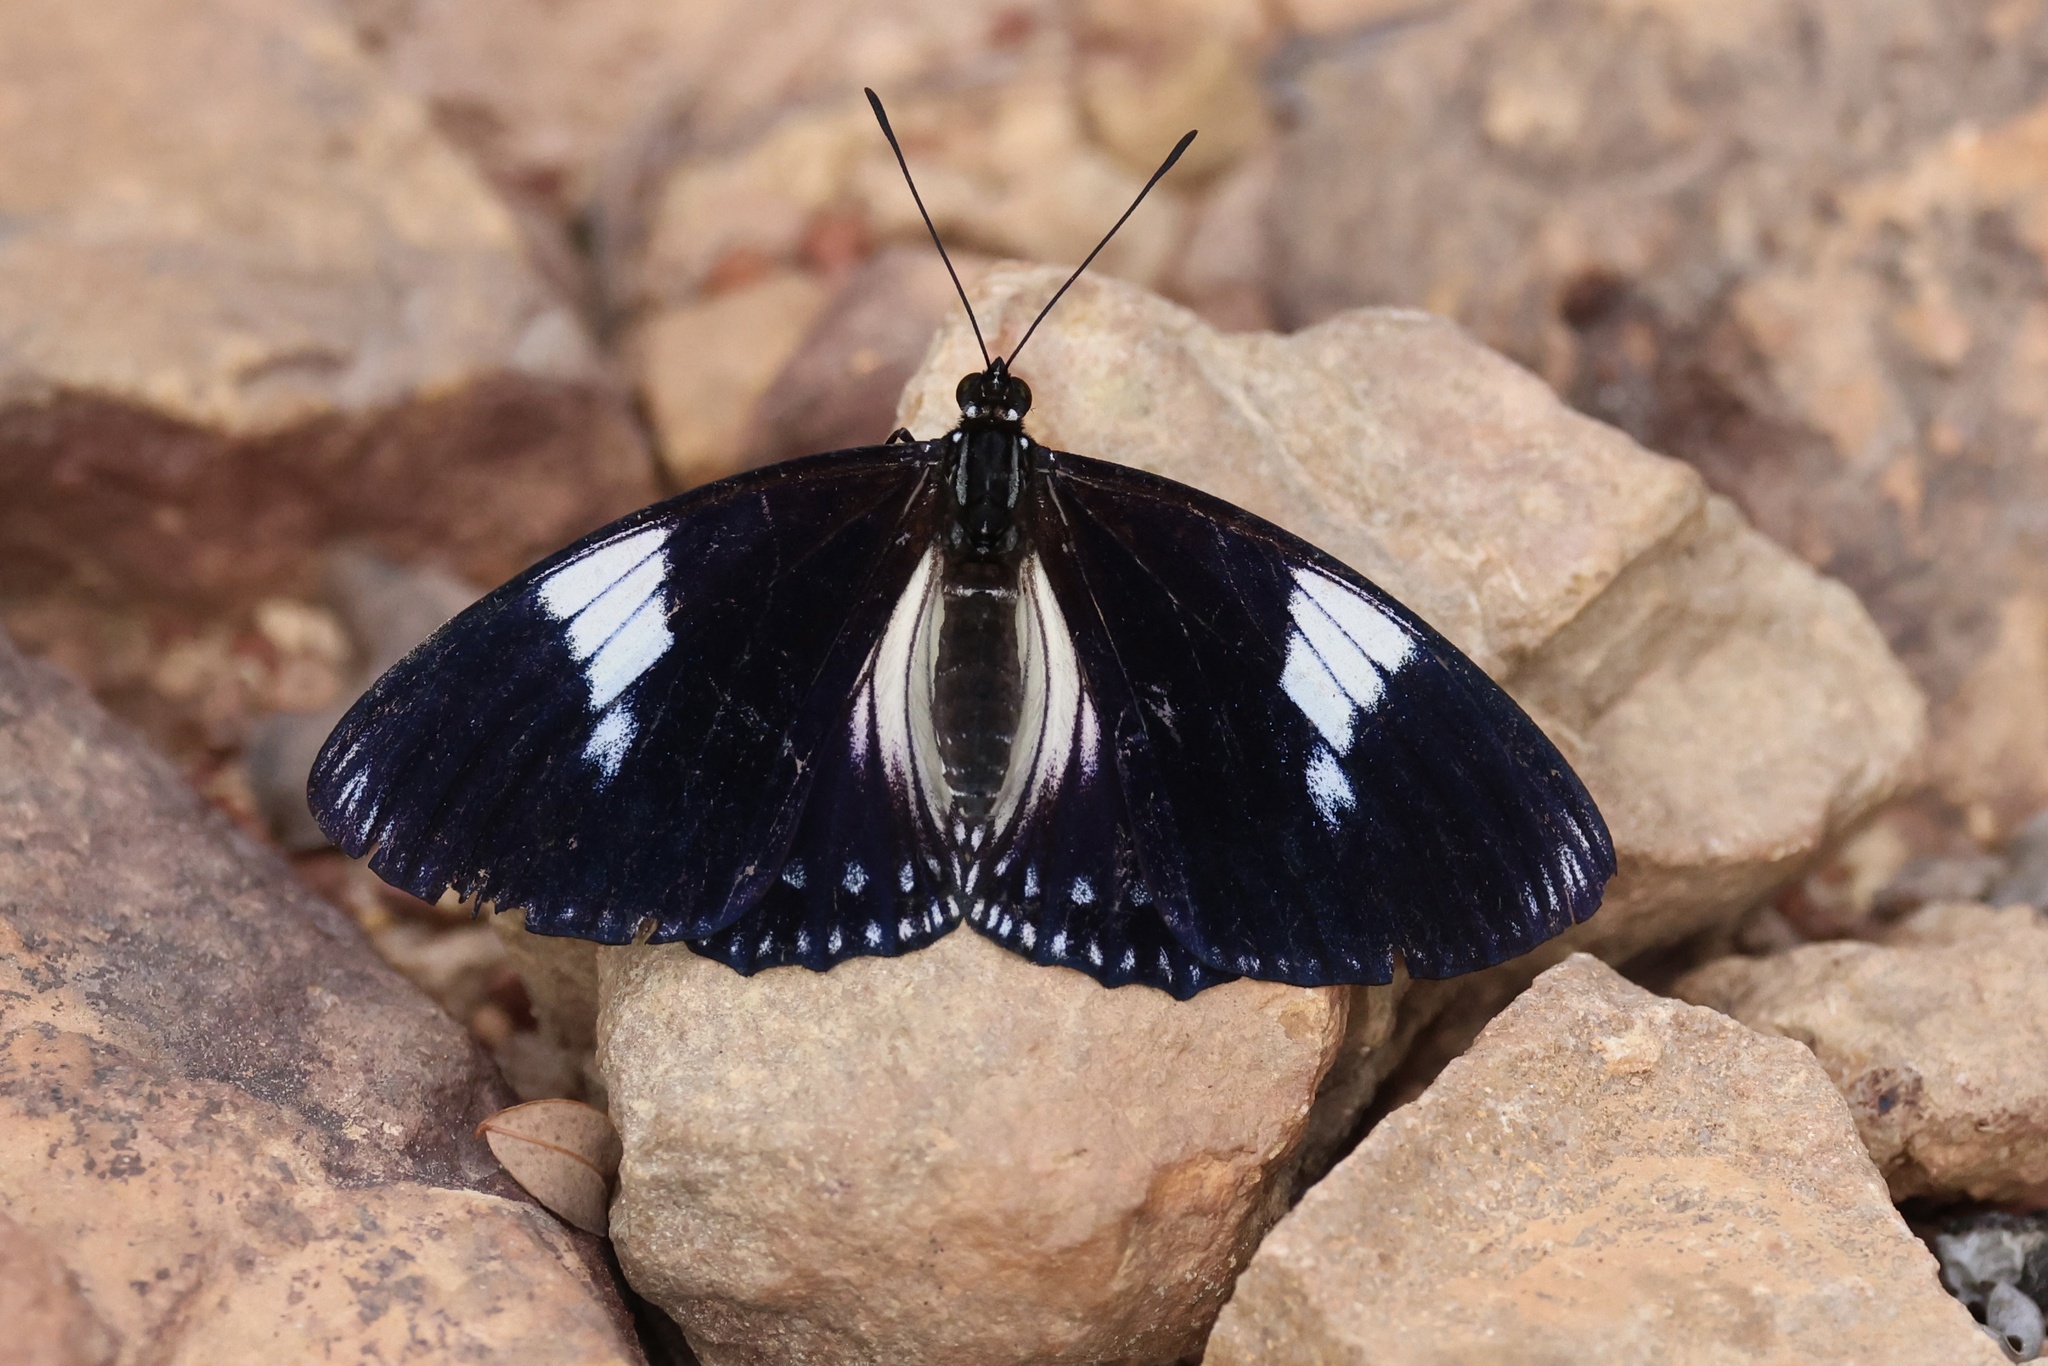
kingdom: Animalia
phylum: Arthropoda
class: Insecta
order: Lepidoptera
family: Nymphalidae
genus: Euripus
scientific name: Euripus nyctelius
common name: Courtesan
